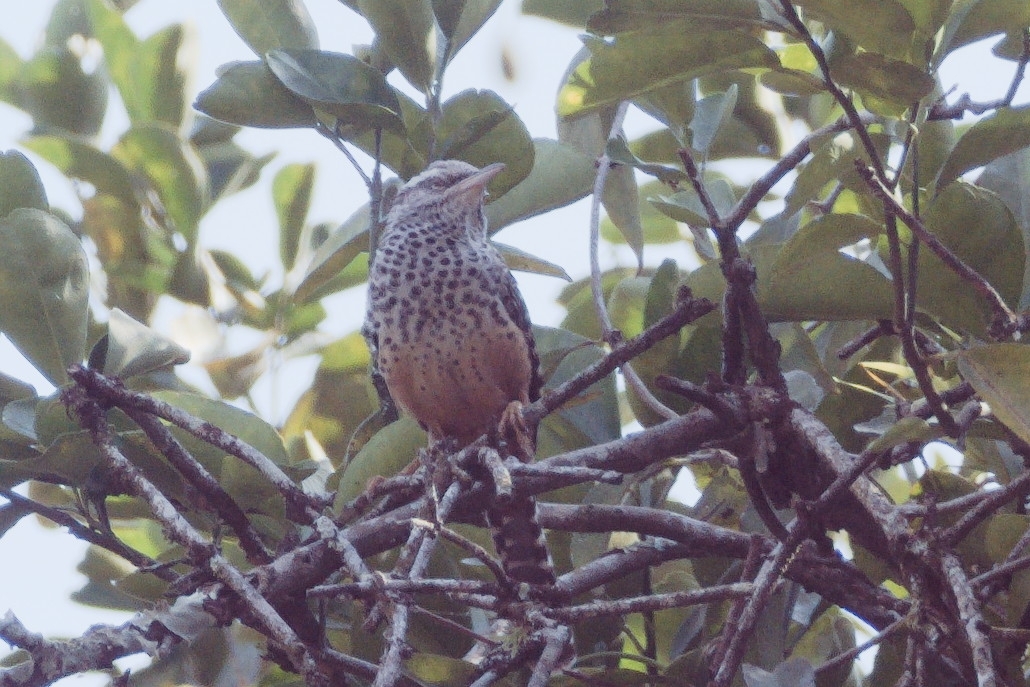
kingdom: Animalia
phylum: Chordata
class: Aves
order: Passeriformes
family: Troglodytidae
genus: Campylorhynchus
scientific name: Campylorhynchus zonatus
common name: Band-backed wren
